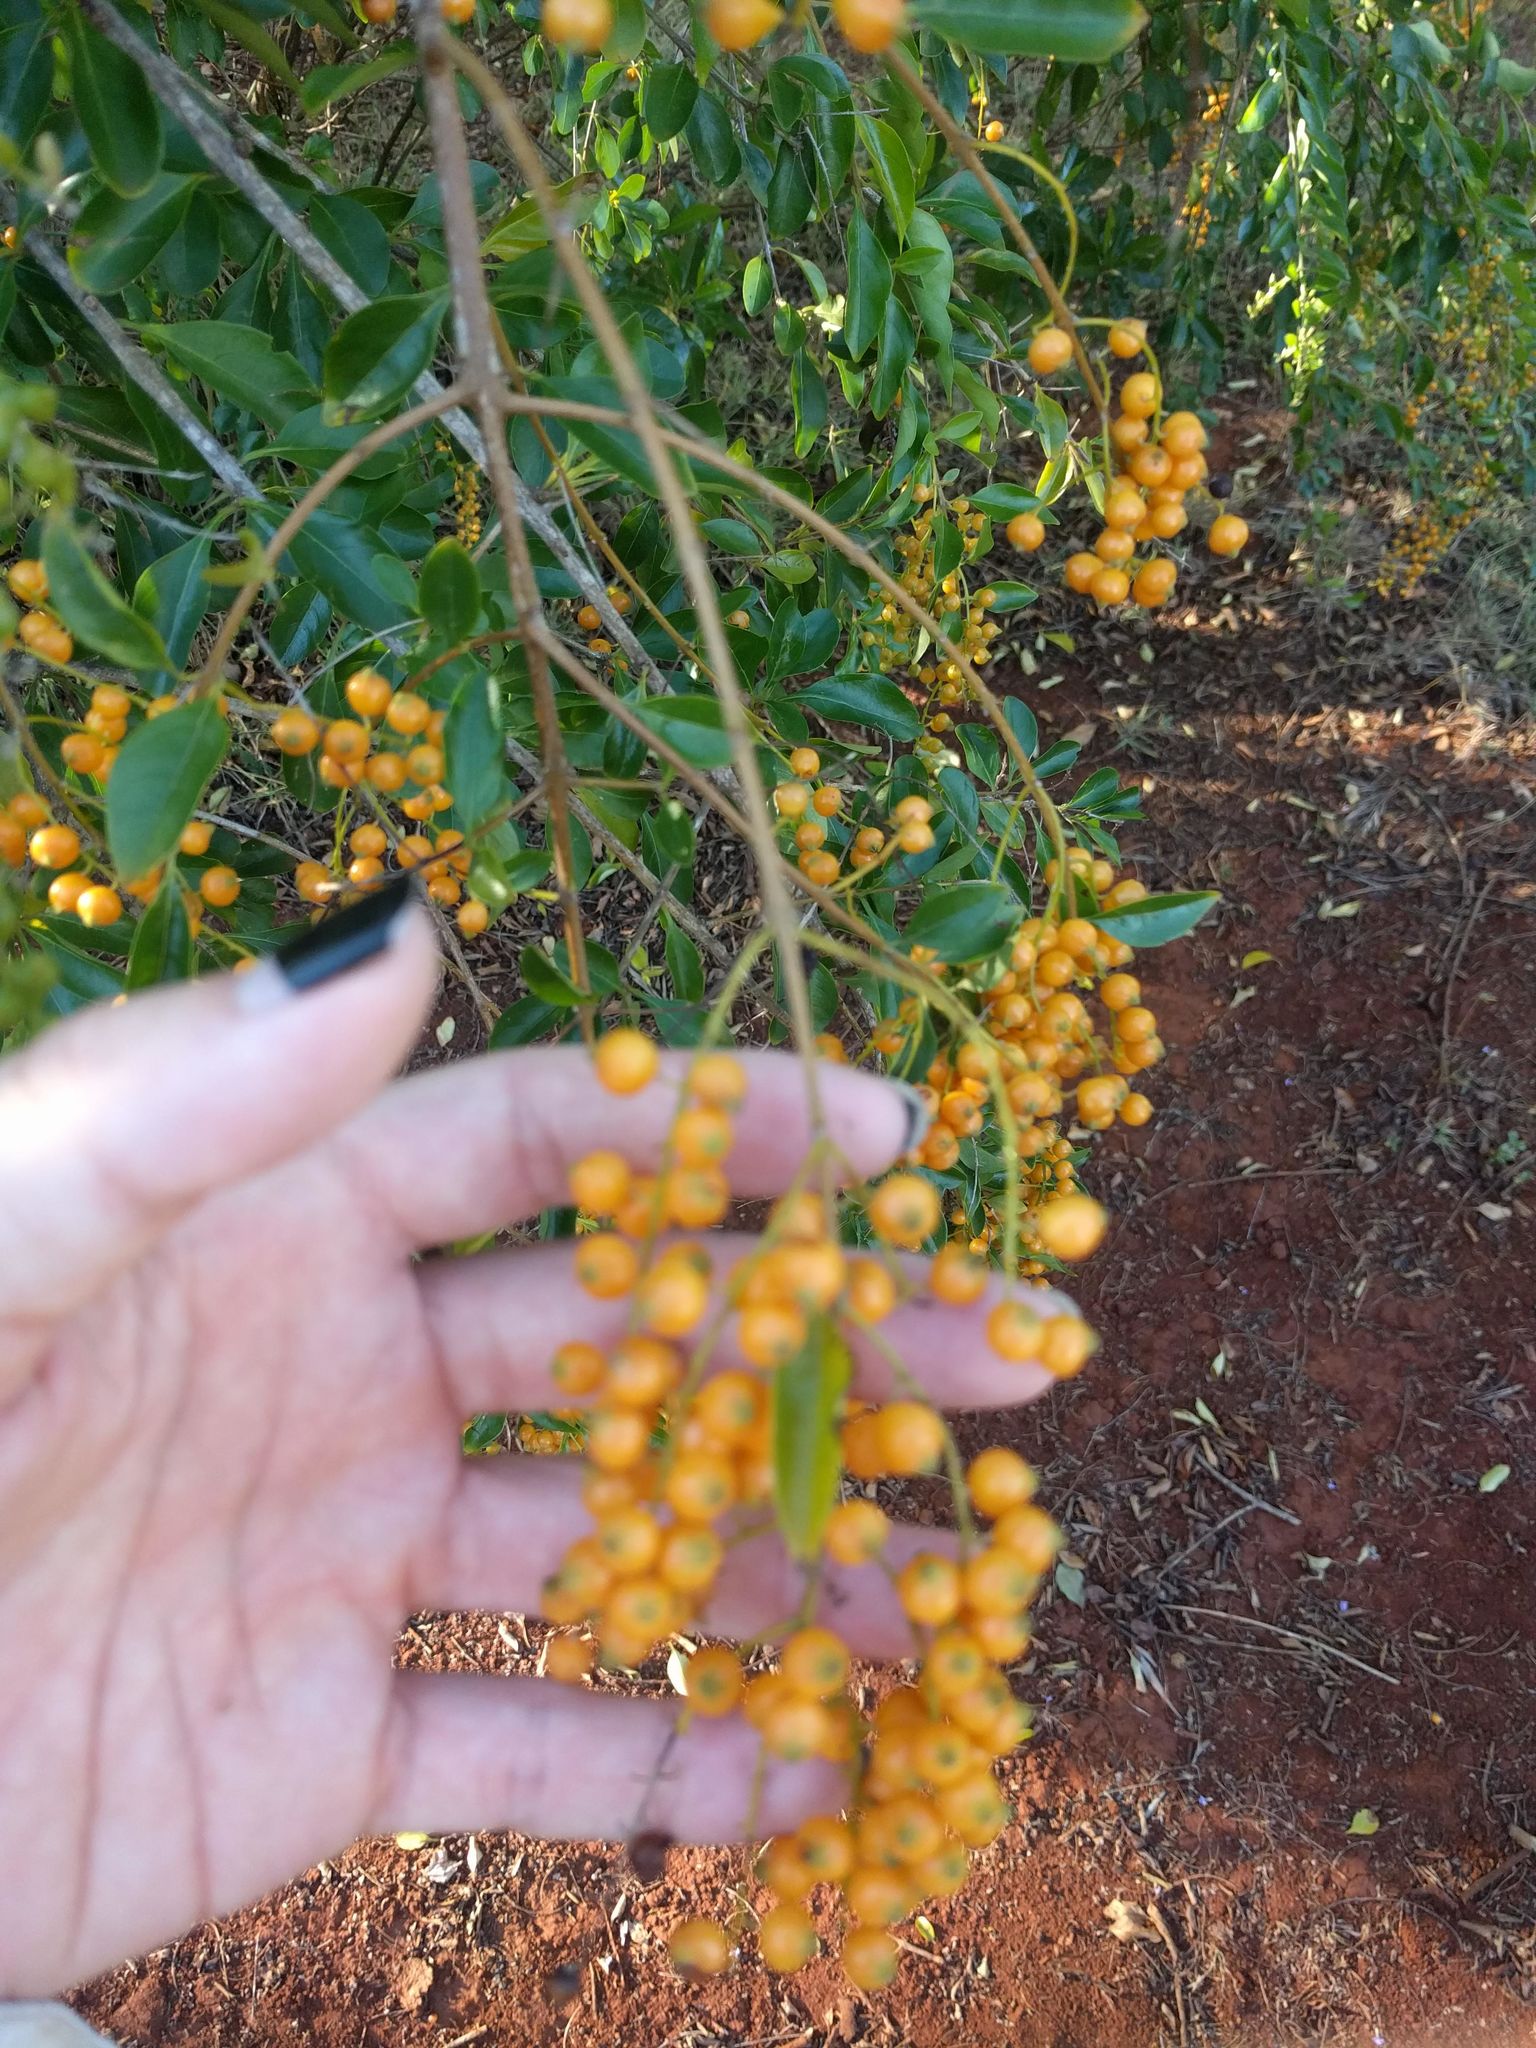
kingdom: Plantae
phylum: Tracheophyta
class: Magnoliopsida
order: Lamiales
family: Verbenaceae
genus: Duranta
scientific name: Duranta erecta
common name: Golden dewdrops
